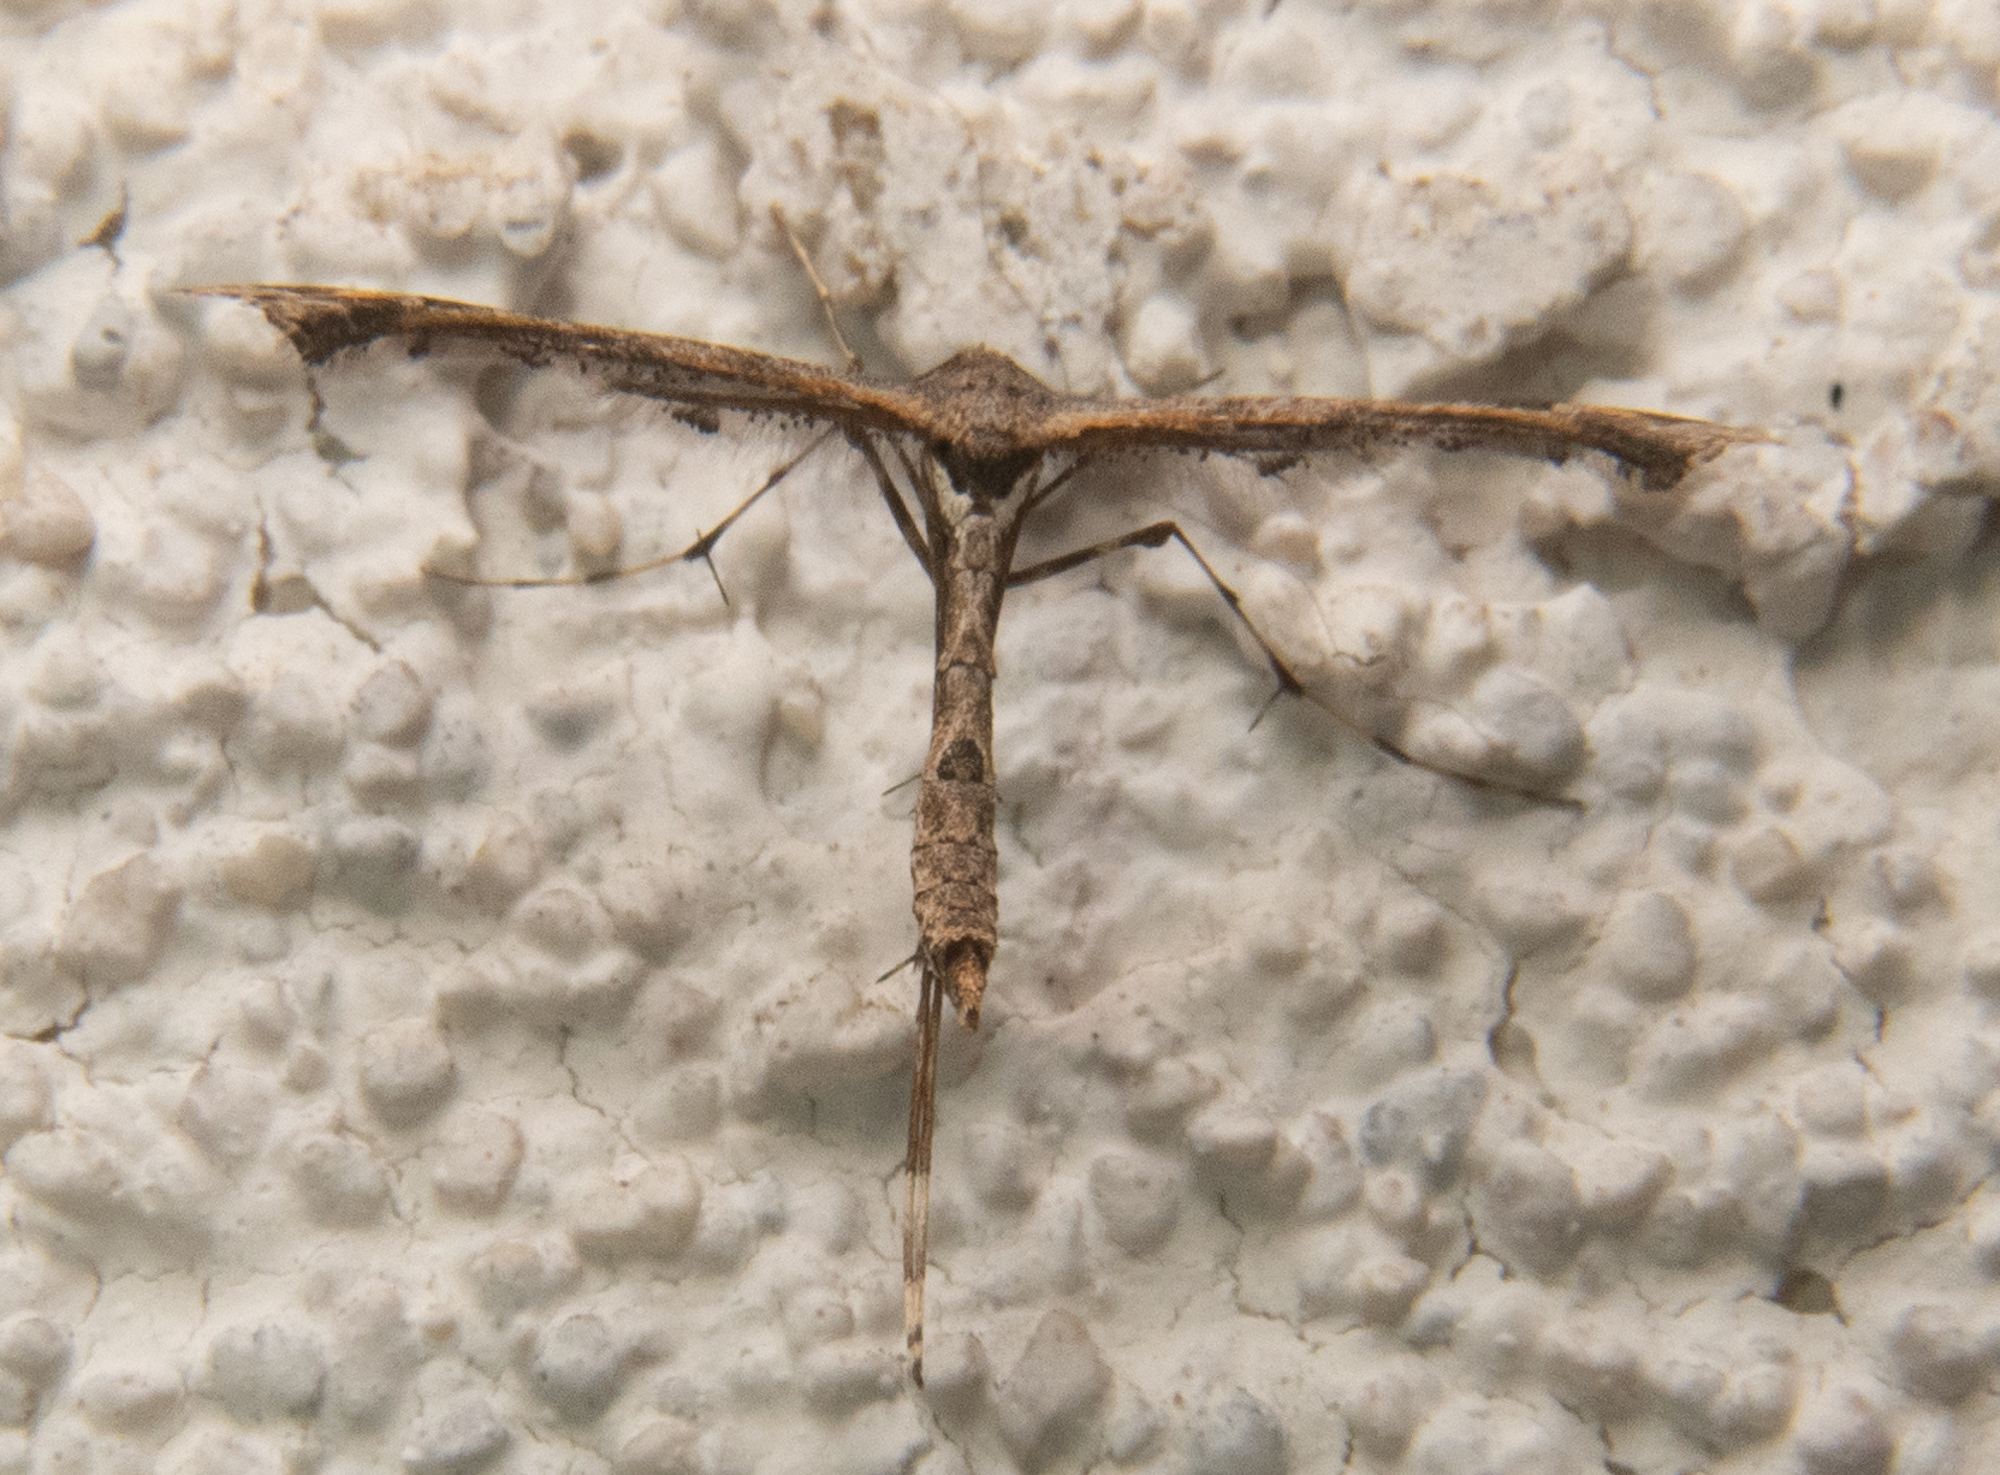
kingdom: Animalia
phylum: Arthropoda
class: Insecta
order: Lepidoptera
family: Pterophoridae
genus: Anstenoptilia
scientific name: Anstenoptilia marmarodactyla
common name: Moth
